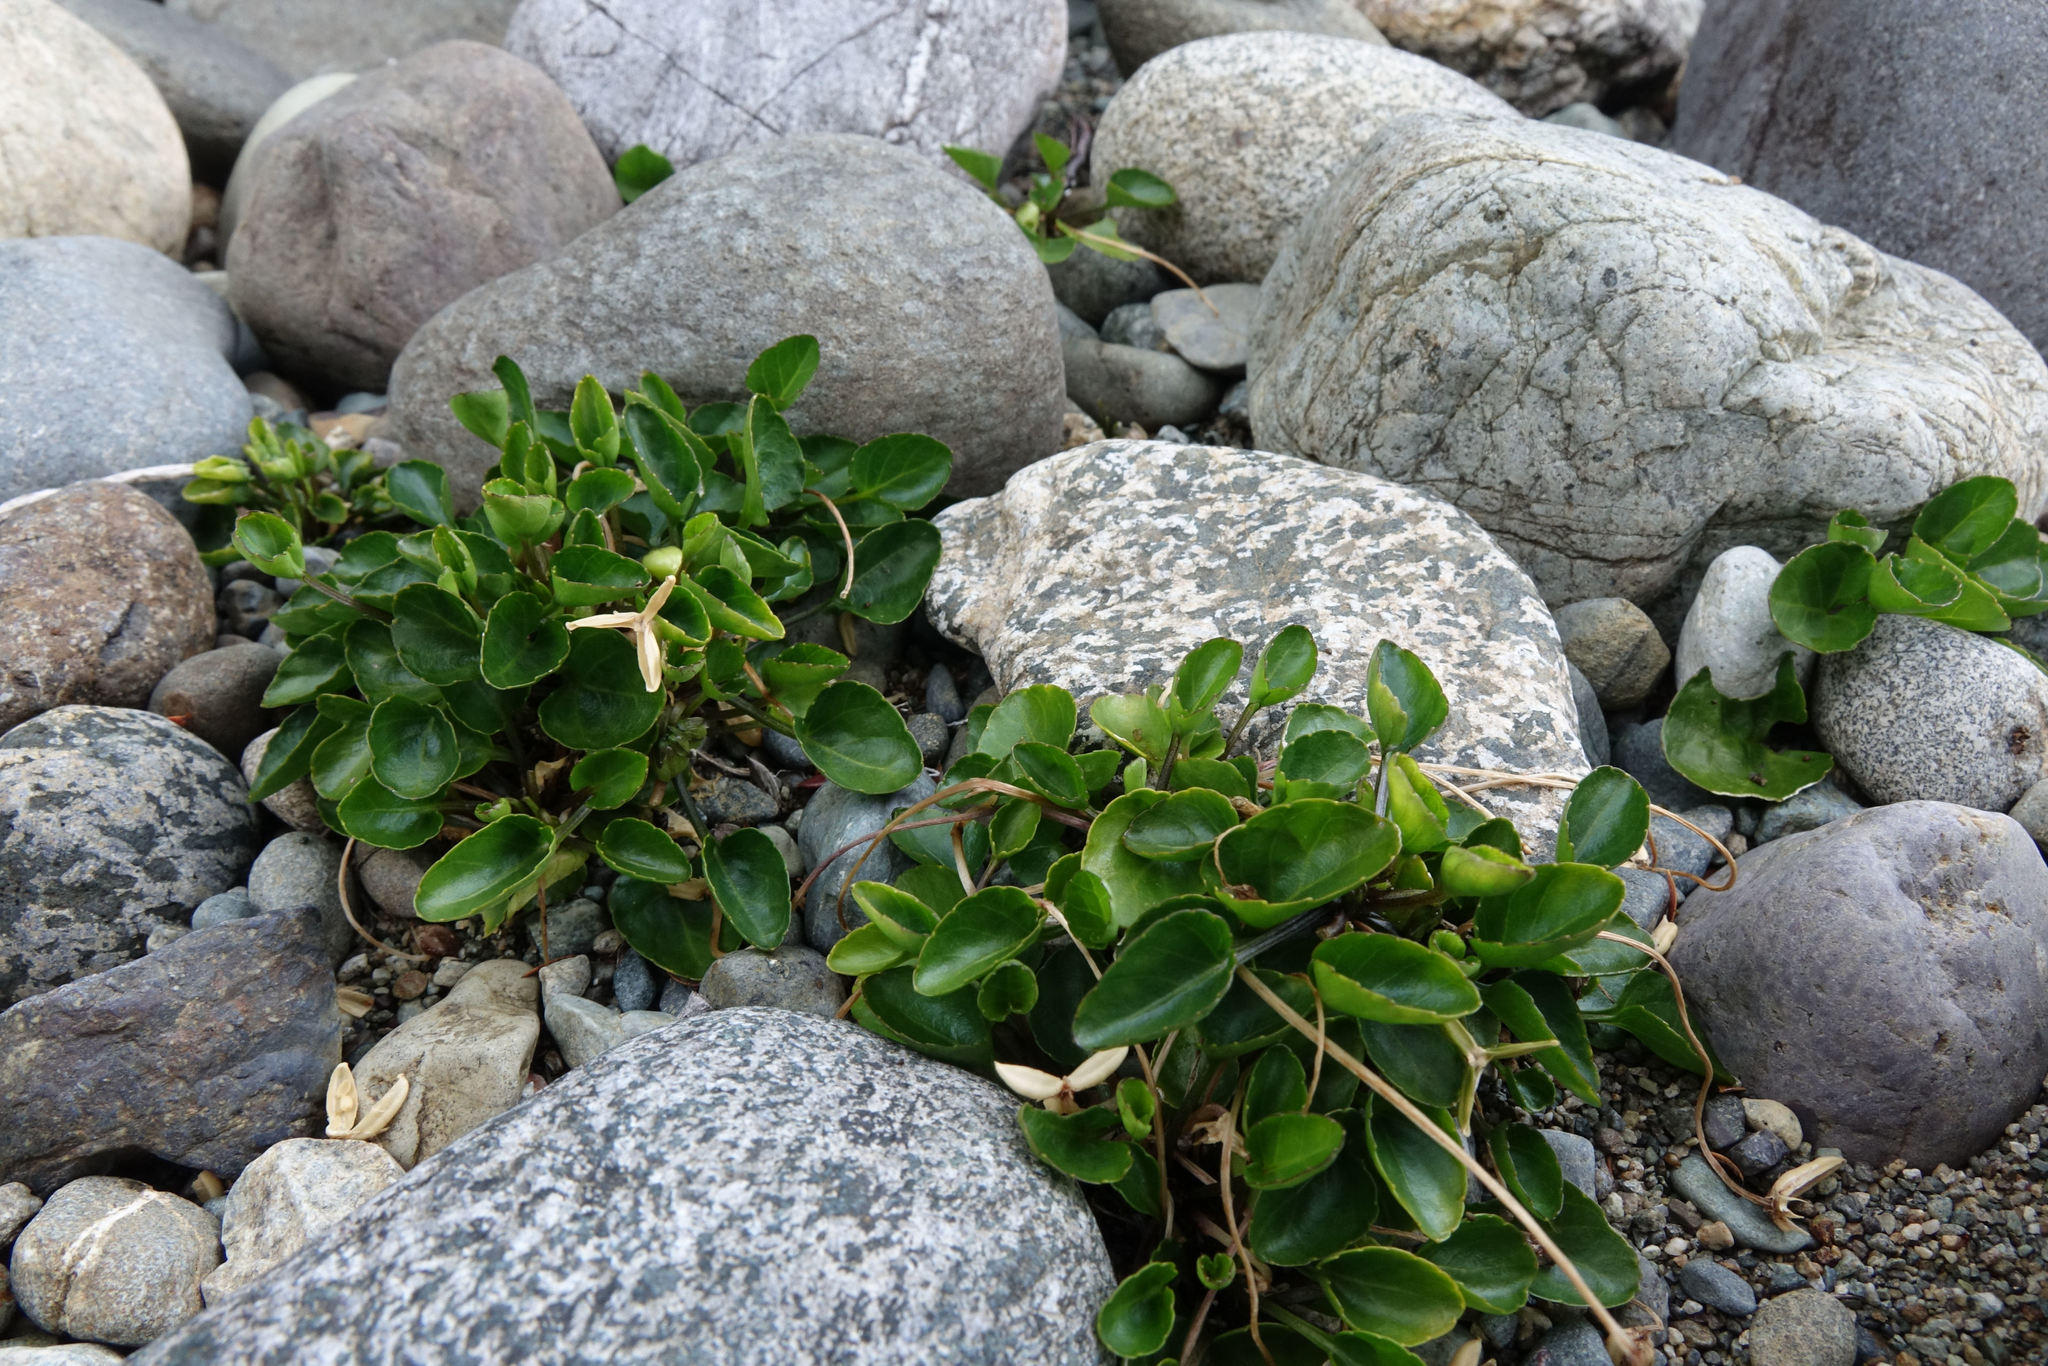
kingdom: Plantae
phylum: Tracheophyta
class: Magnoliopsida
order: Malpighiales
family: Violaceae
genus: Viola
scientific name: Viola cunninghamii
